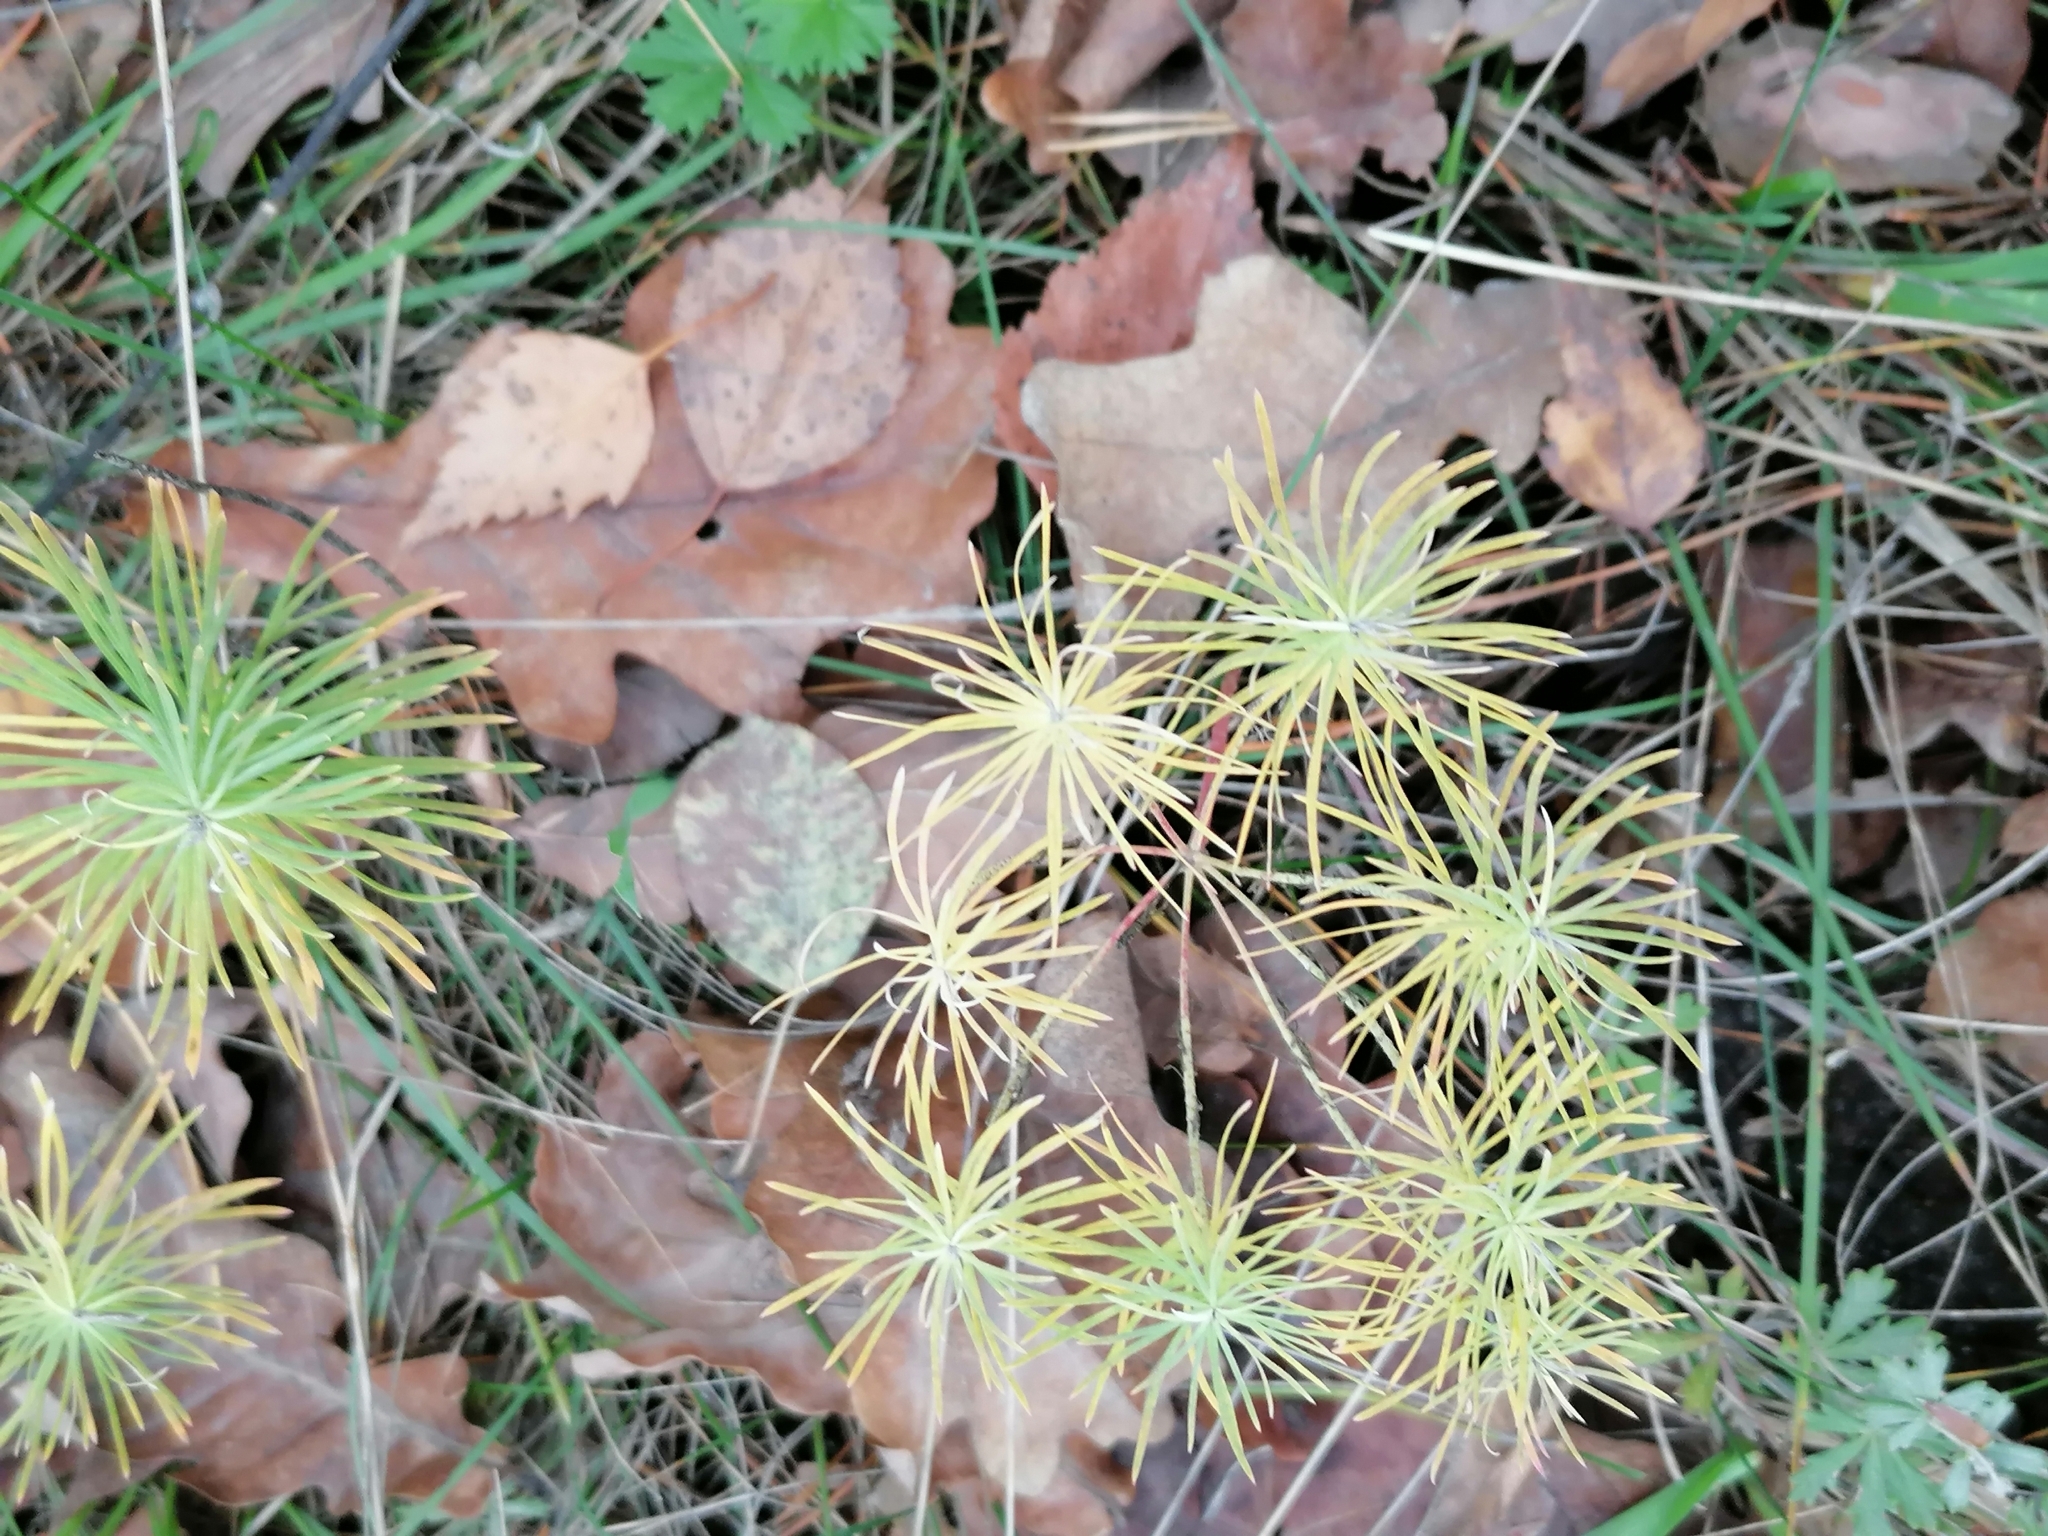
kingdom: Plantae
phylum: Tracheophyta
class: Magnoliopsida
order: Malpighiales
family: Euphorbiaceae
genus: Euphorbia
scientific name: Euphorbia cyparissias
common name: Cypress spurge
